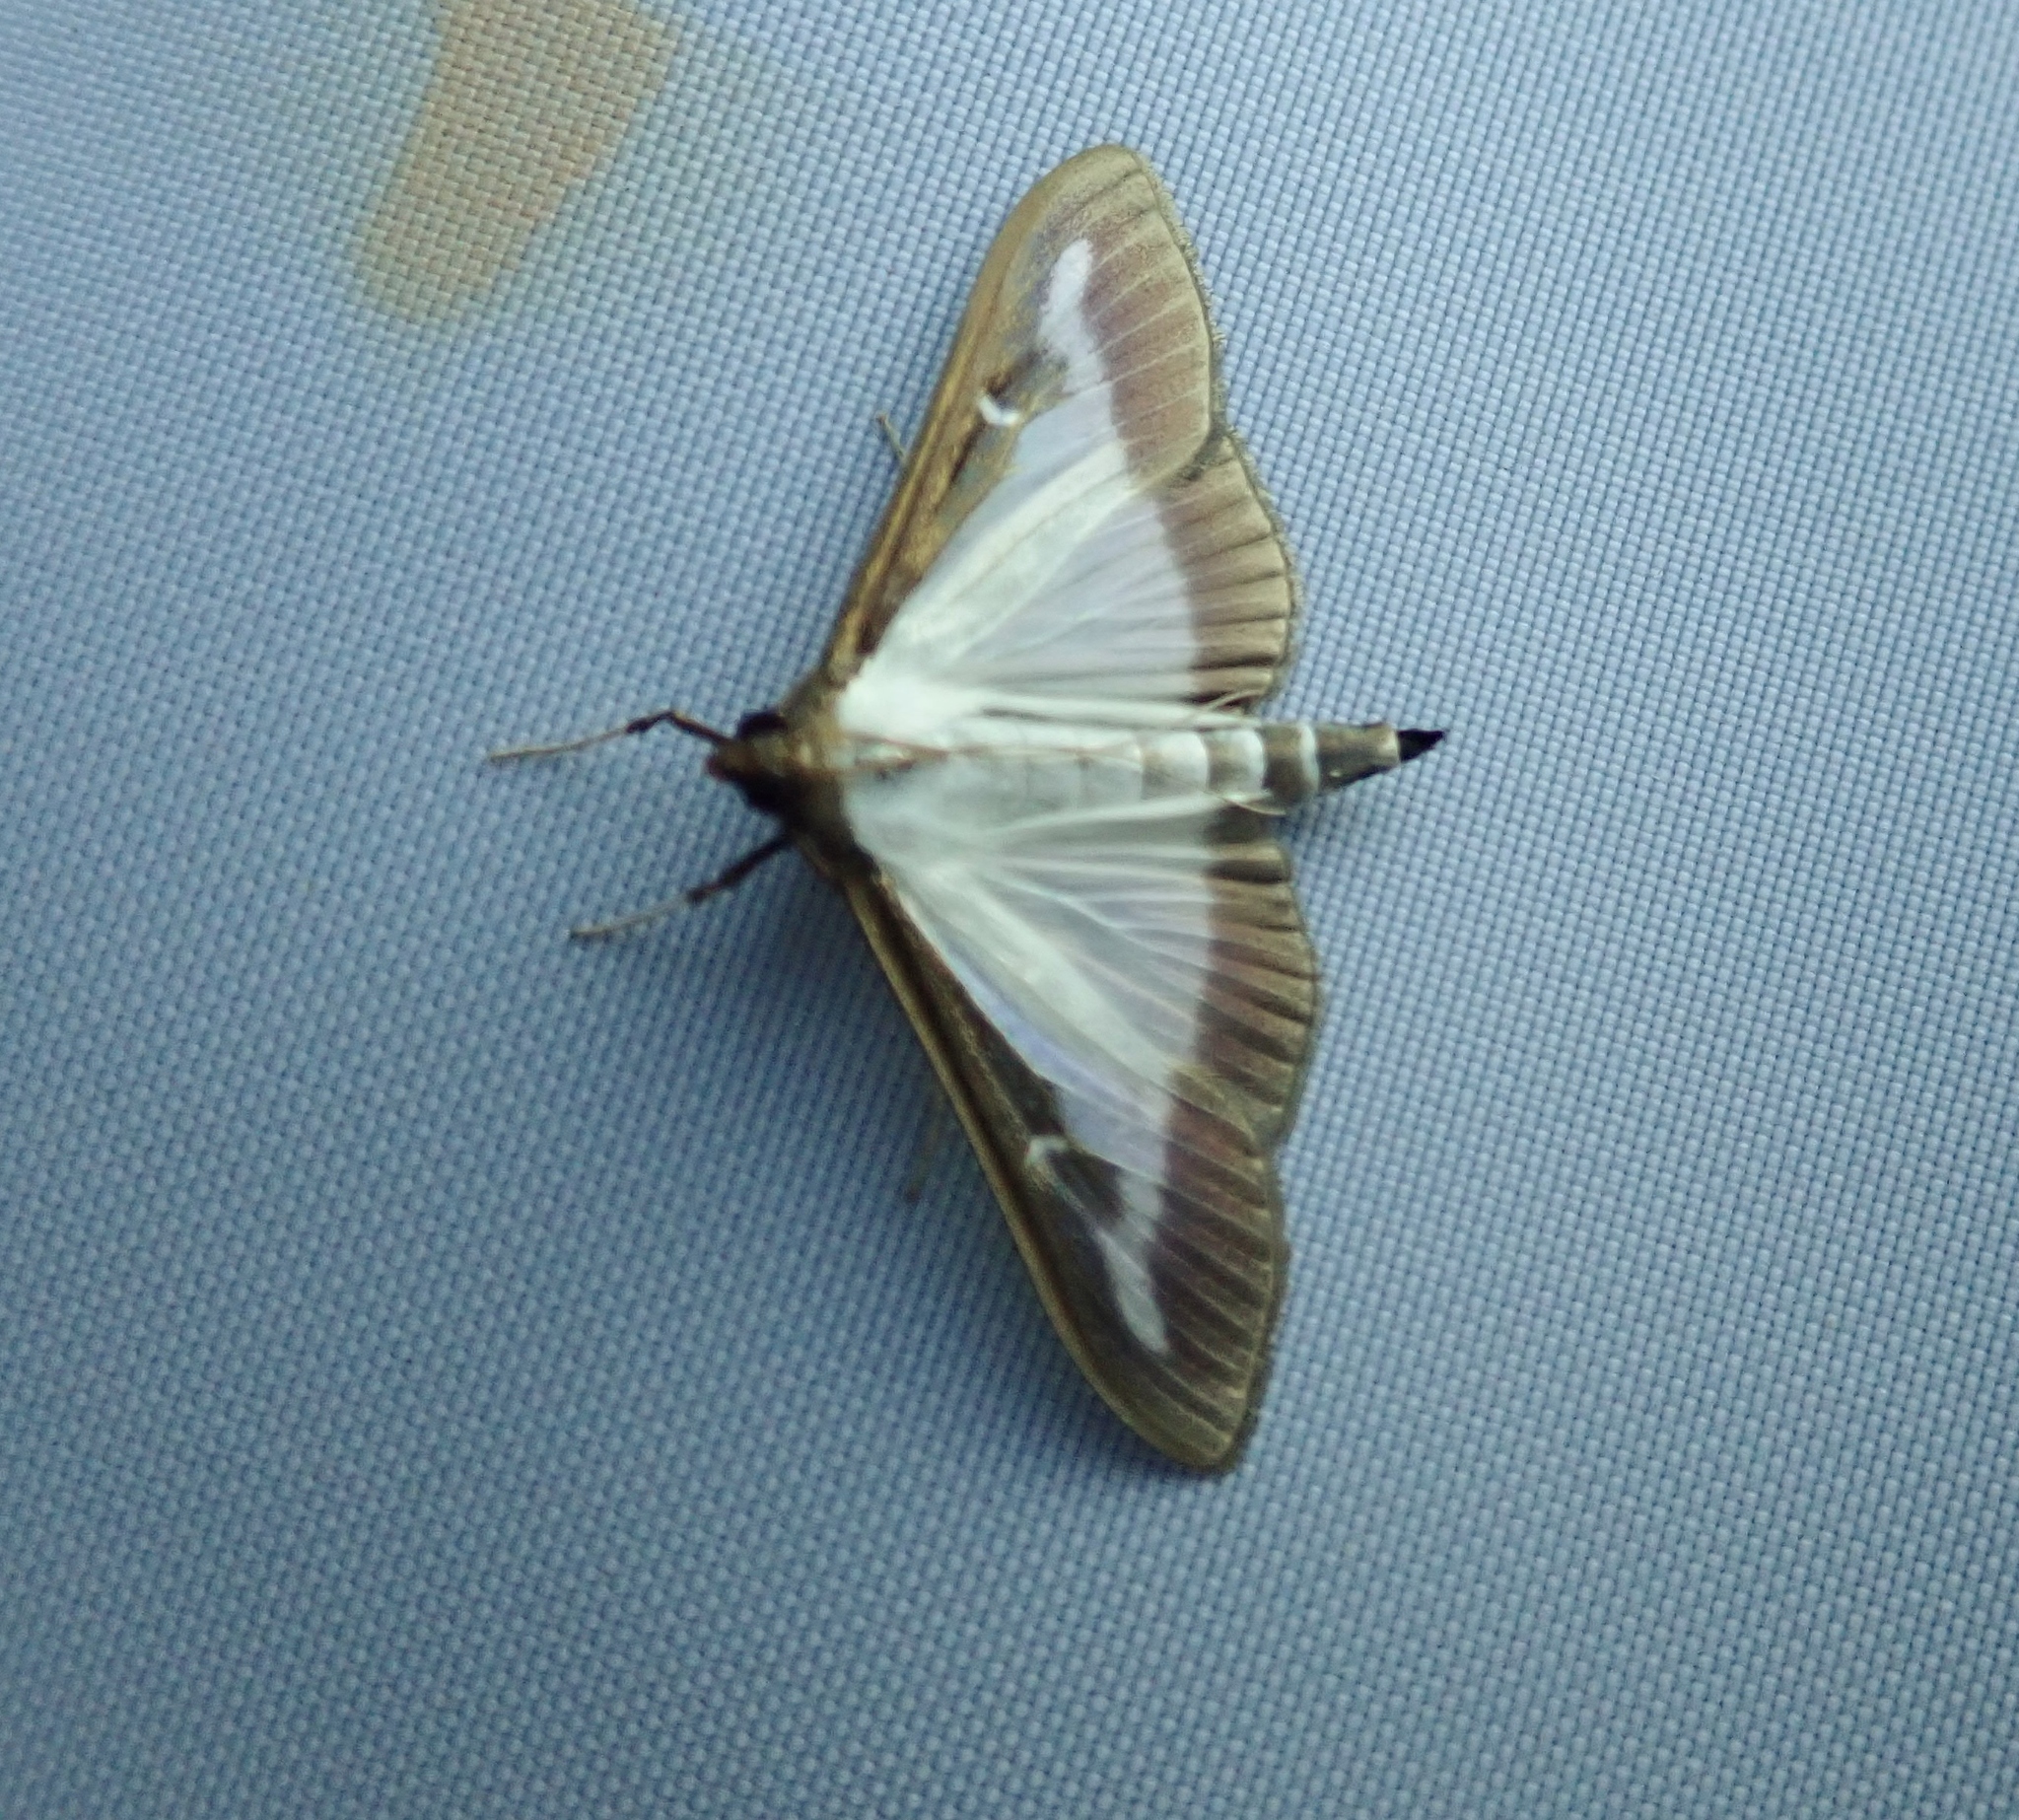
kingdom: Animalia
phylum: Arthropoda
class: Insecta
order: Lepidoptera
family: Crambidae
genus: Cydalima
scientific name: Cydalima perspectalis
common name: Box tree moth
